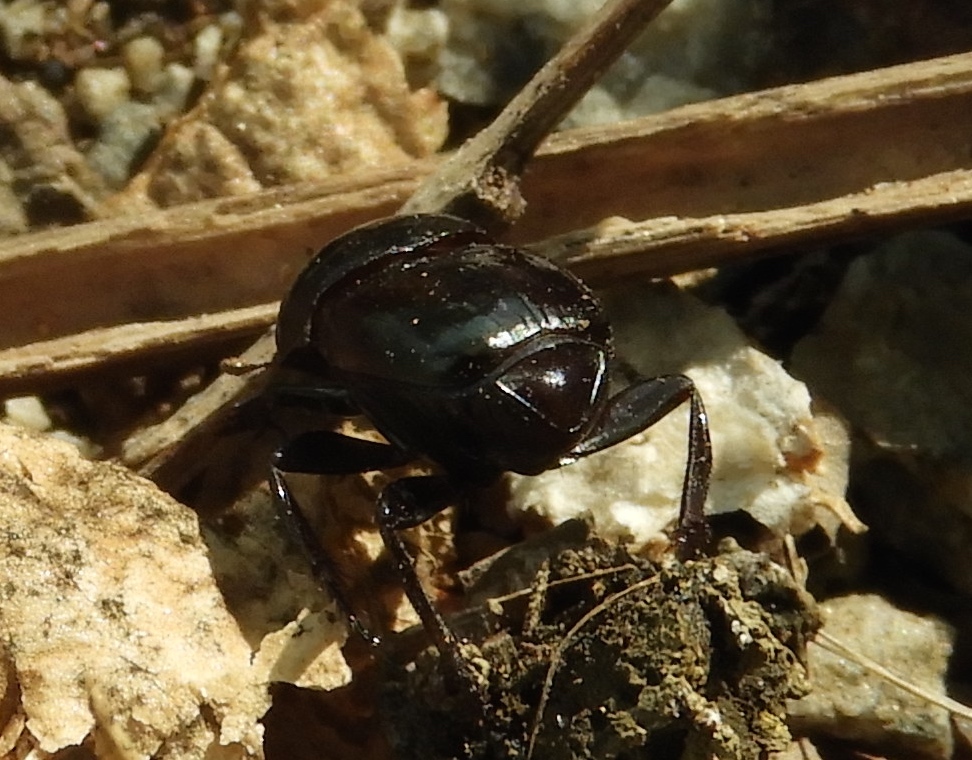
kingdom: Animalia
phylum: Arthropoda
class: Insecta
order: Coleoptera
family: Scarabaeidae
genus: Canthon
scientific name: Canthon
